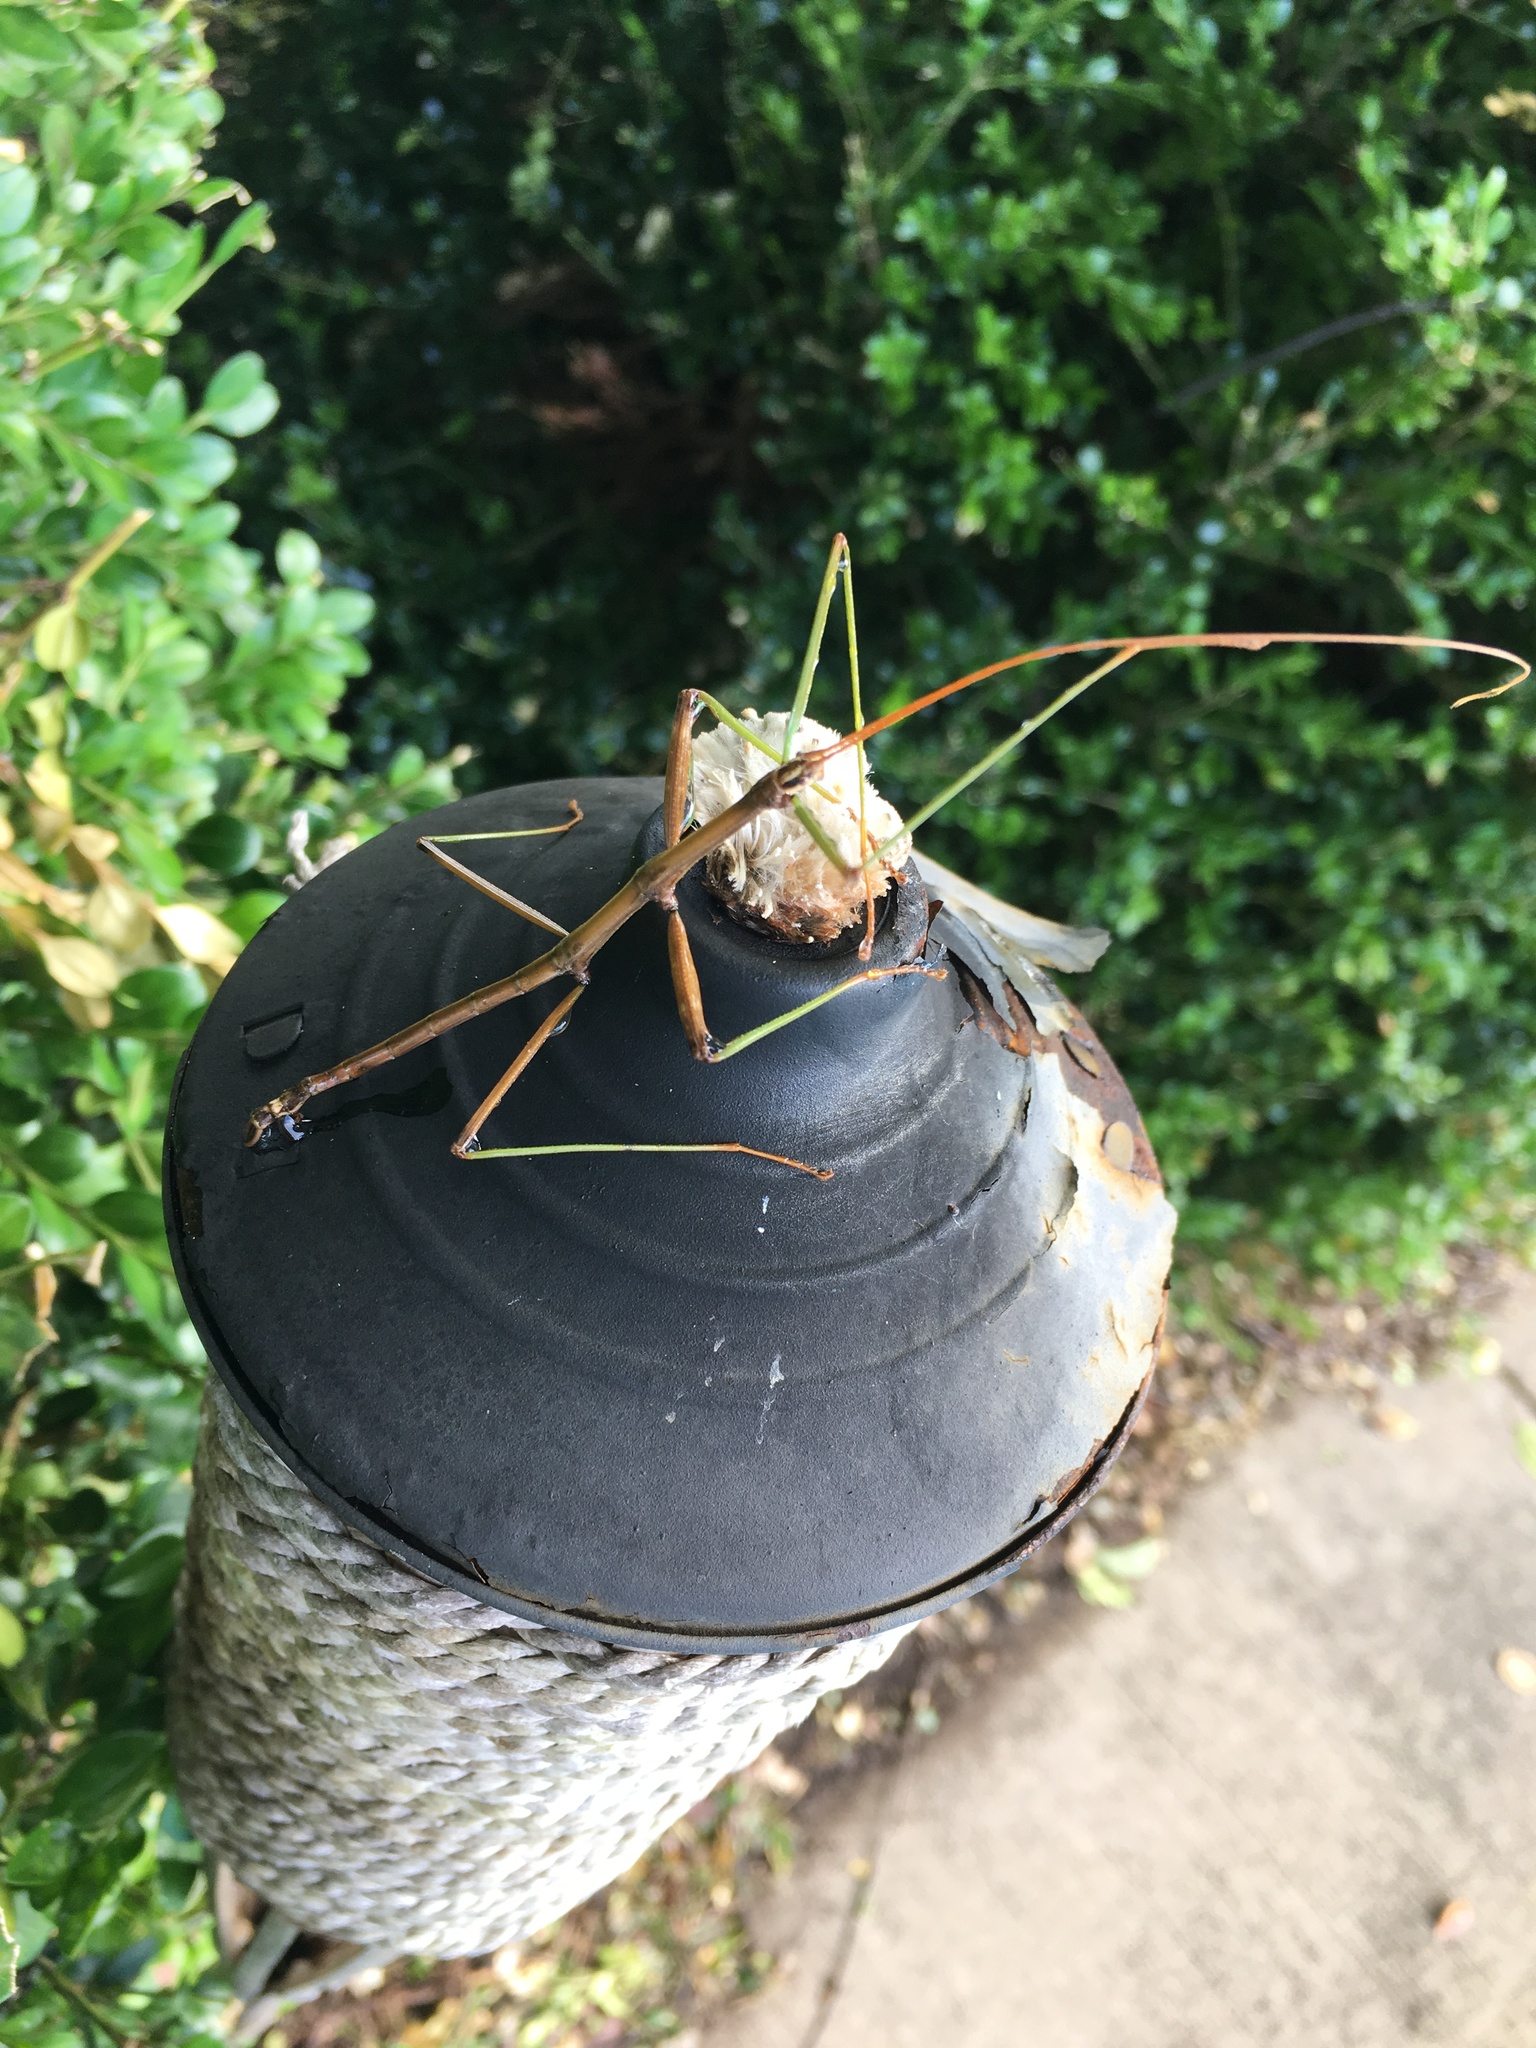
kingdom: Animalia
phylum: Arthropoda
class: Insecta
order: Phasmida
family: Diapheromeridae
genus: Diapheromera
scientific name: Diapheromera femorata
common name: Common american walkingstick
